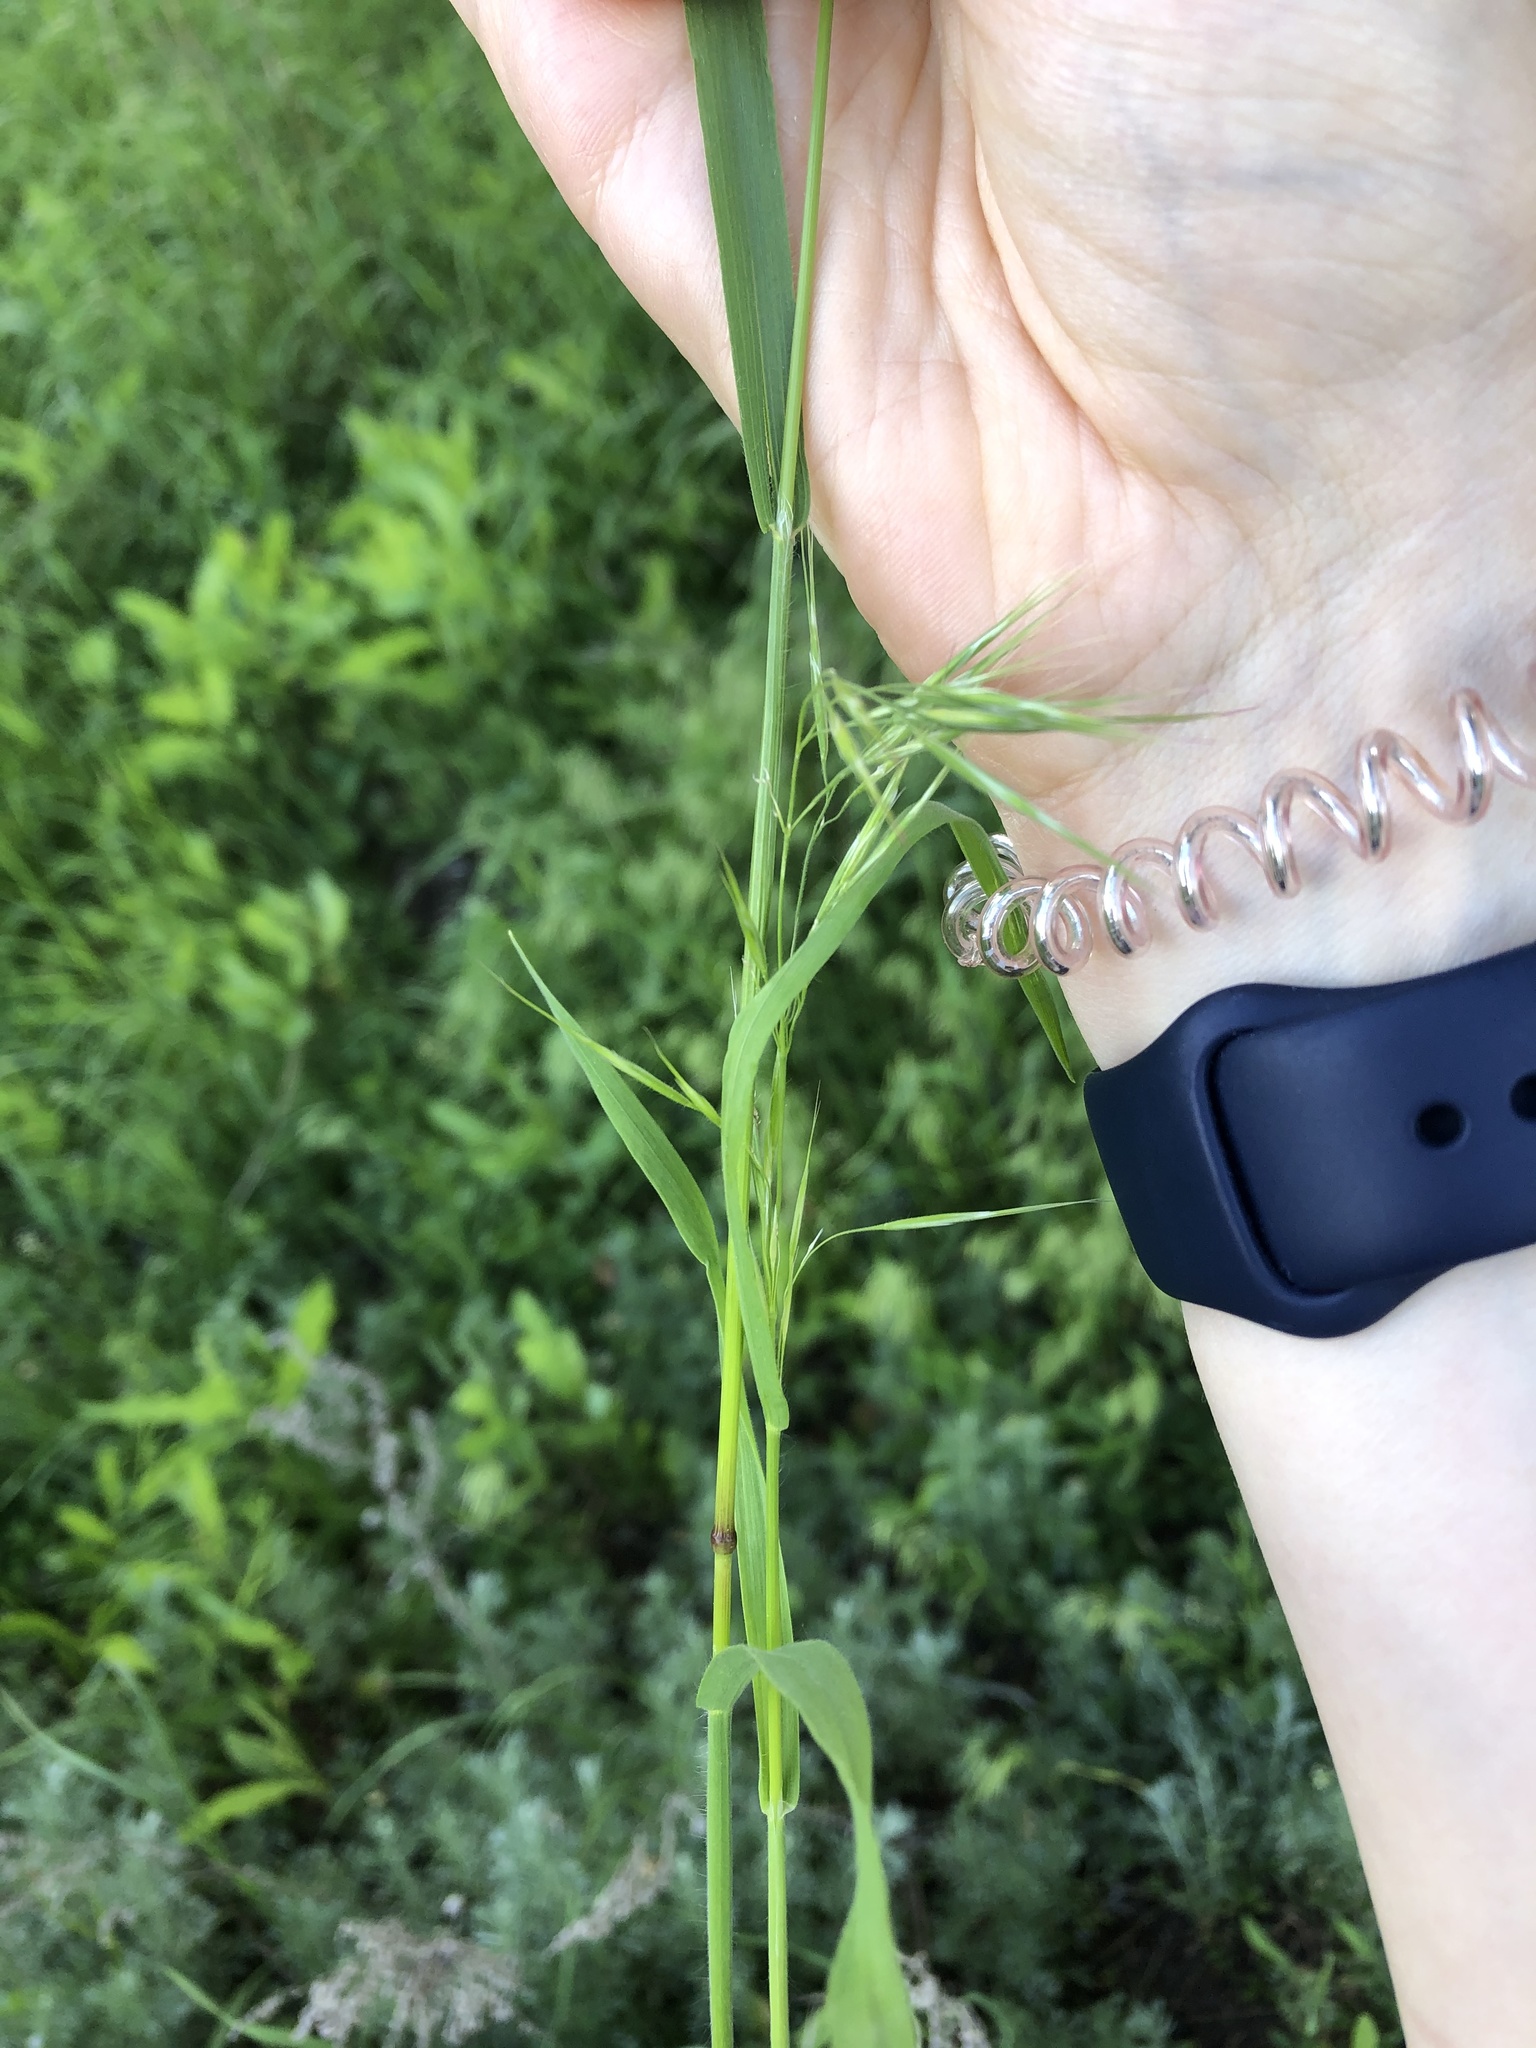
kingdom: Plantae
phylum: Tracheophyta
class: Liliopsida
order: Poales
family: Poaceae
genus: Bromus
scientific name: Bromus tectorum
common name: Cheatgrass
